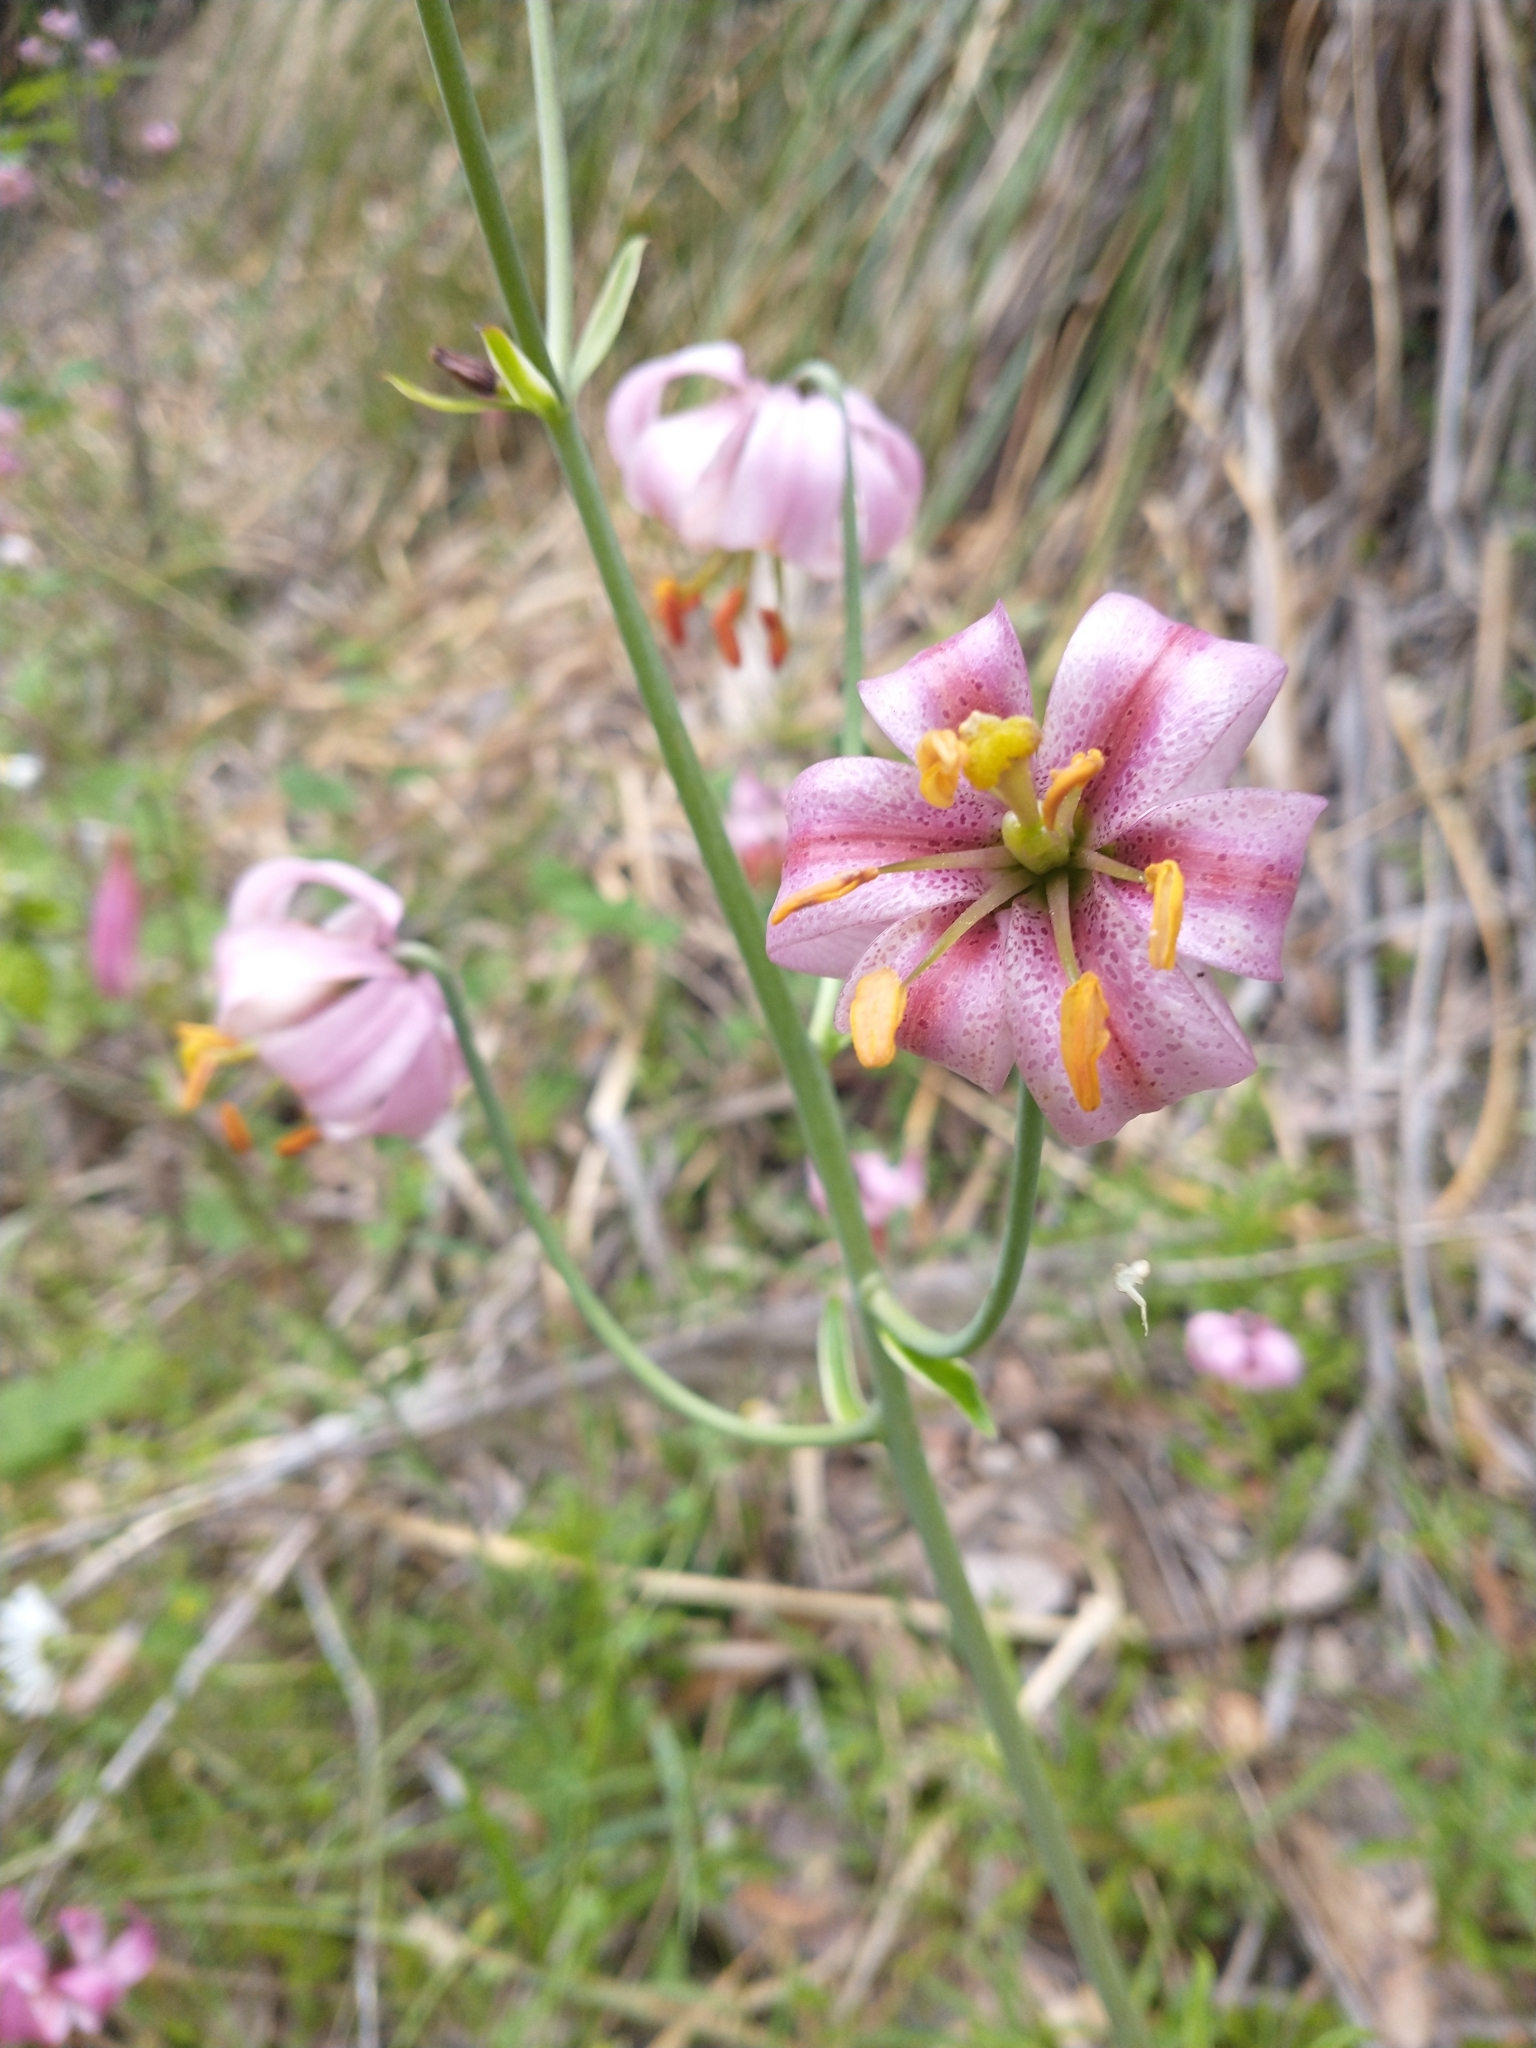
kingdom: Plantae
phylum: Tracheophyta
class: Liliopsida
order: Liliales
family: Liliaceae
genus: Lilium
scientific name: Lilium kelloggii
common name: Kellogg's lily
